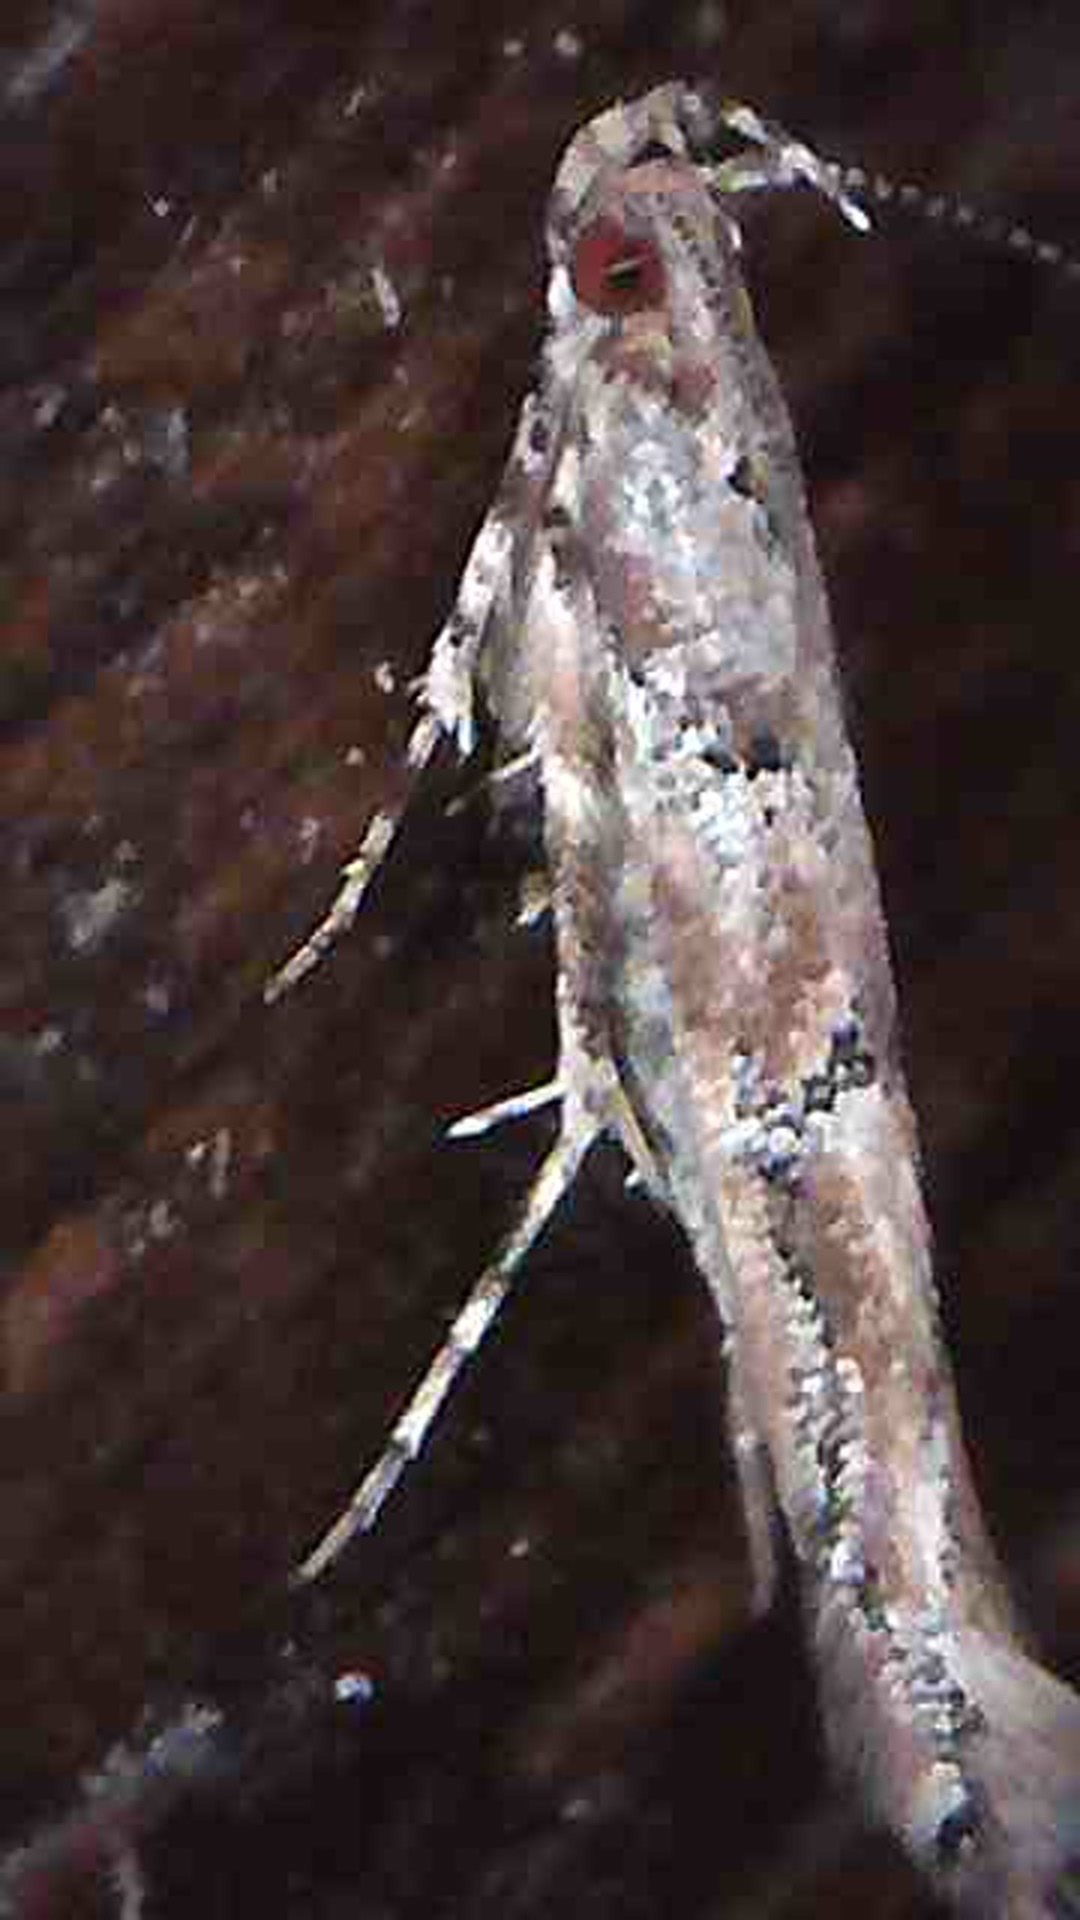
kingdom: Animalia
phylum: Arthropoda
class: Insecta
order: Lepidoptera
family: Cosmopterigidae
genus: Pyroderces
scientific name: Pyroderces aellotricha
